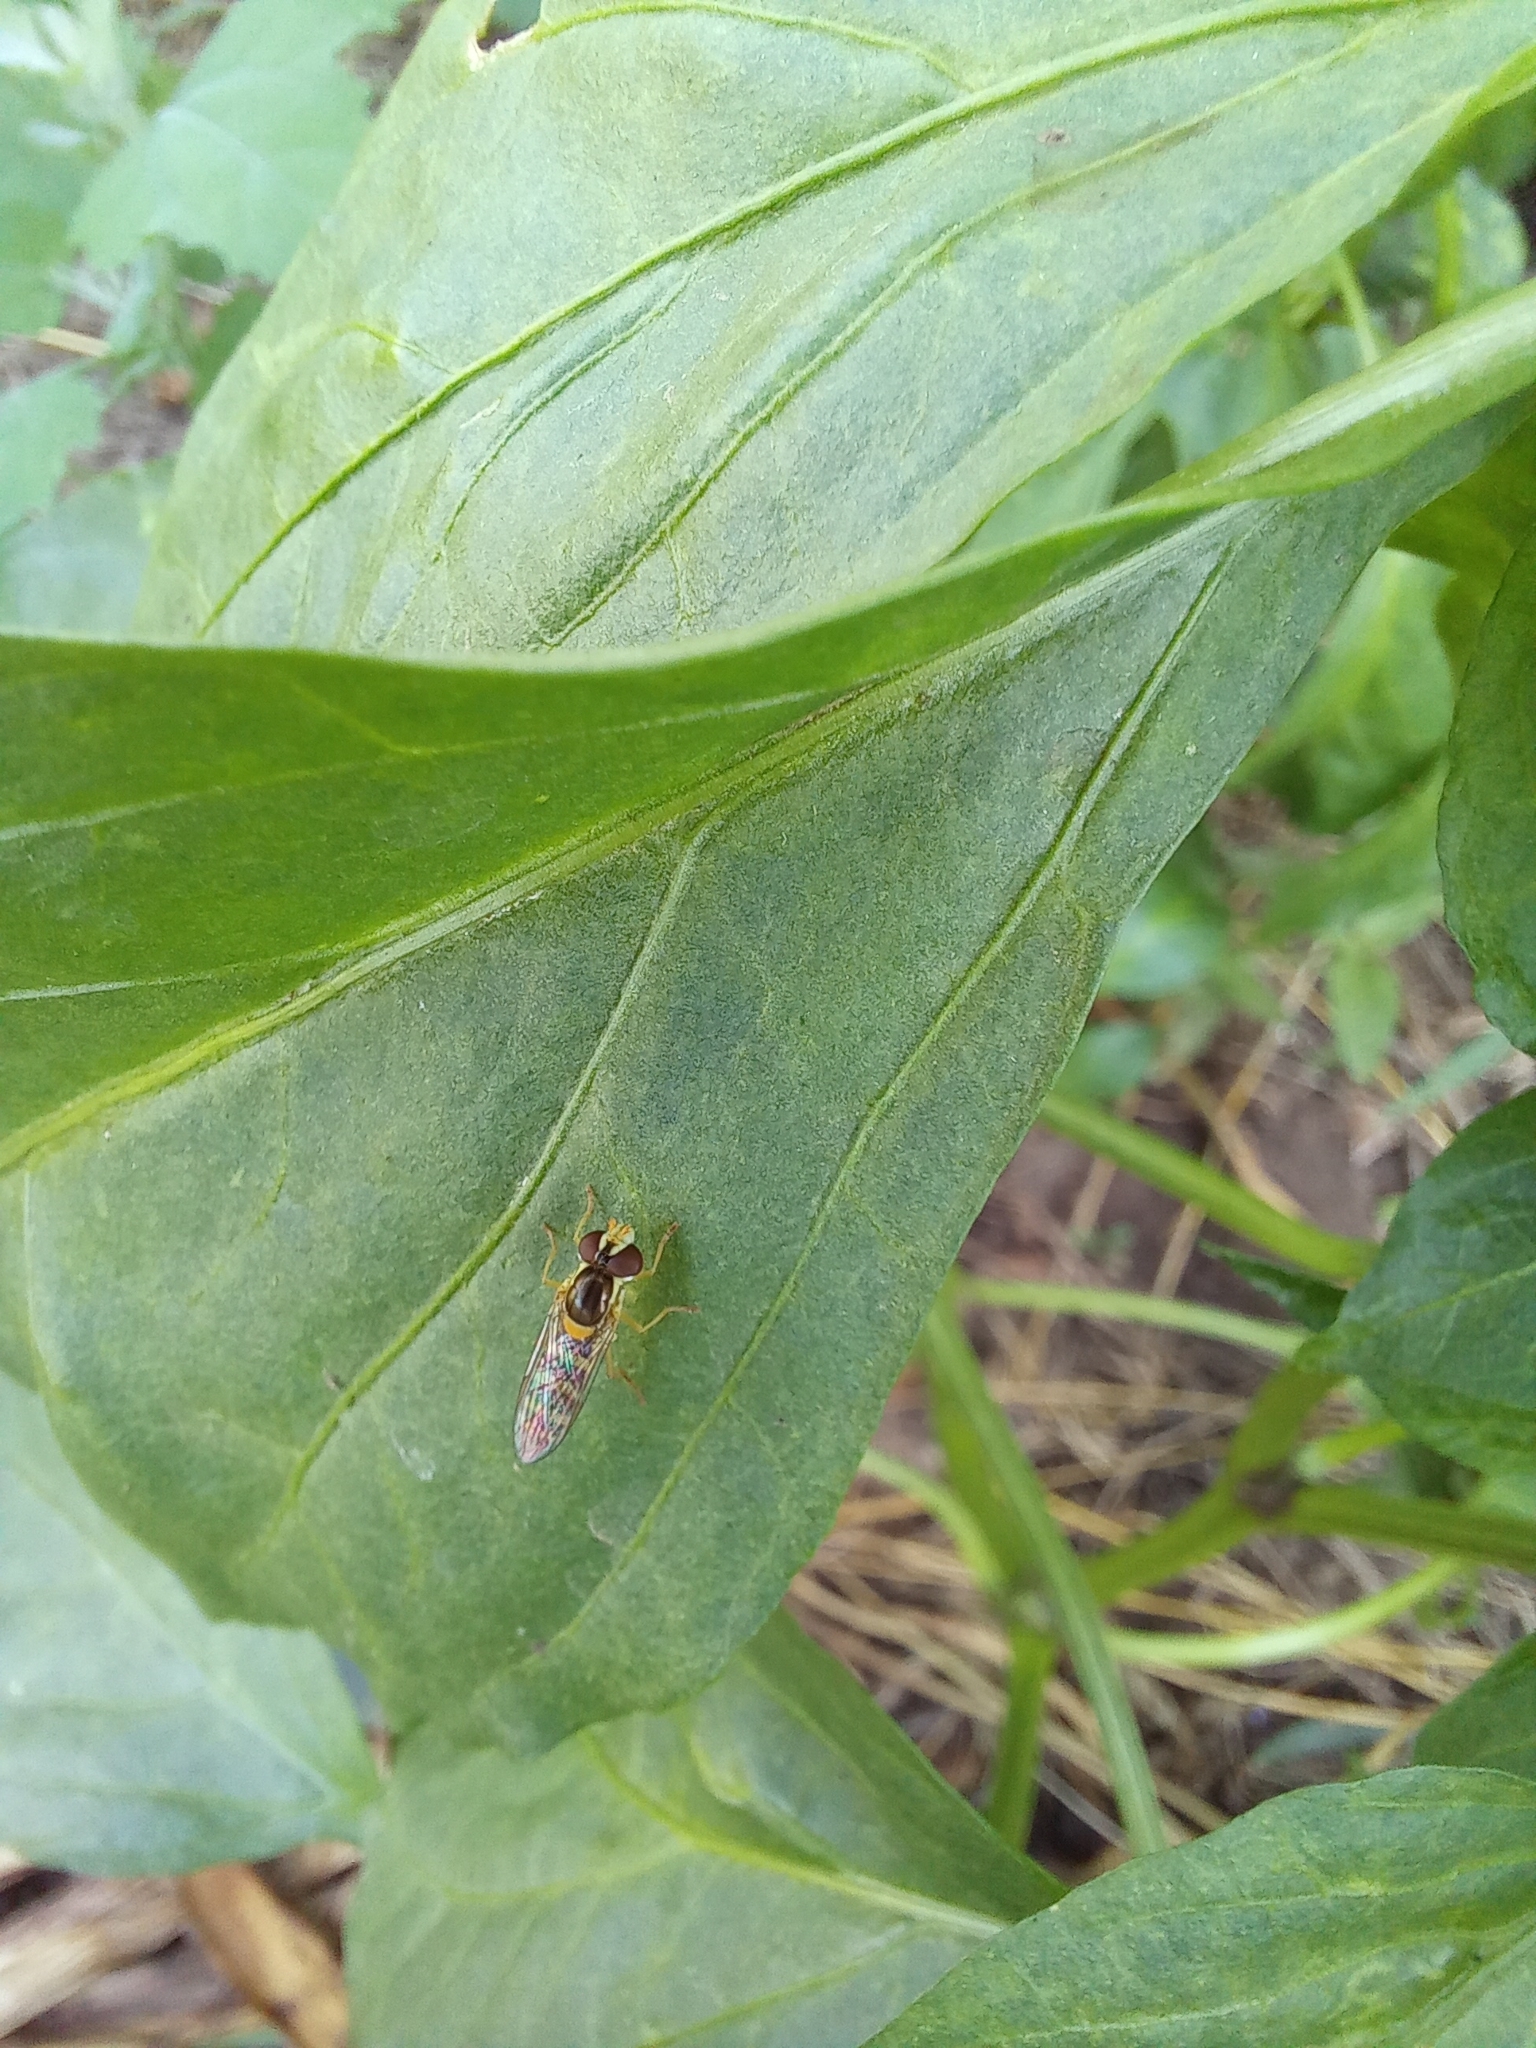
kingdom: Animalia
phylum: Arthropoda
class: Insecta
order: Diptera
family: Syrphidae
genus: Sphaerophoria
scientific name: Sphaerophoria
